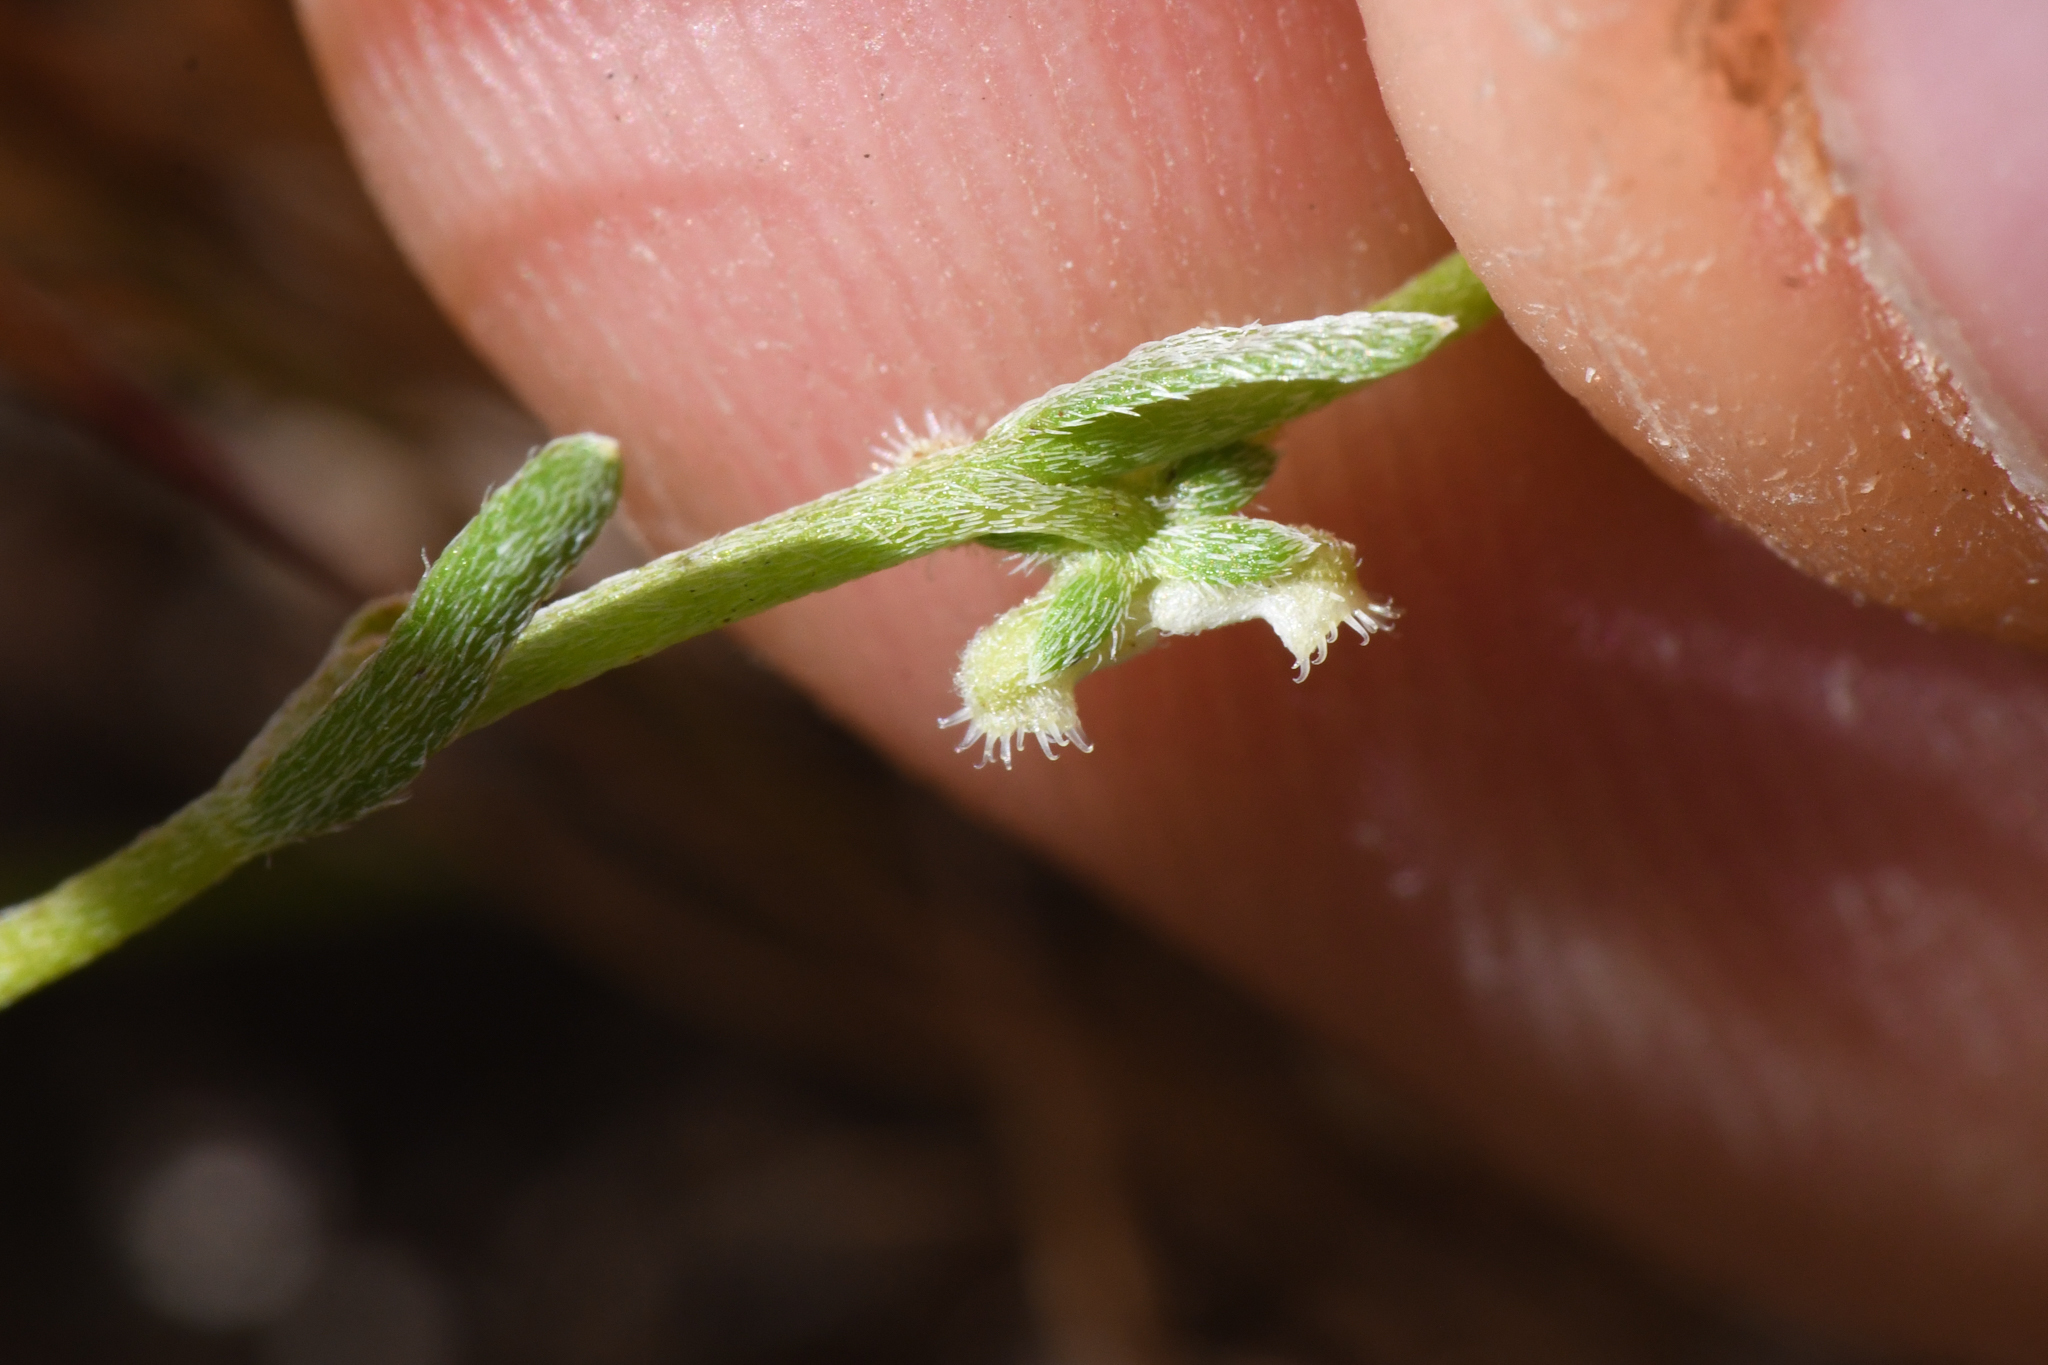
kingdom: Plantae
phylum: Tracheophyta
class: Magnoliopsida
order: Boraginales
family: Boraginaceae
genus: Pectocarya
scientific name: Pectocarya penicillata
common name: Short-leaved combseed
